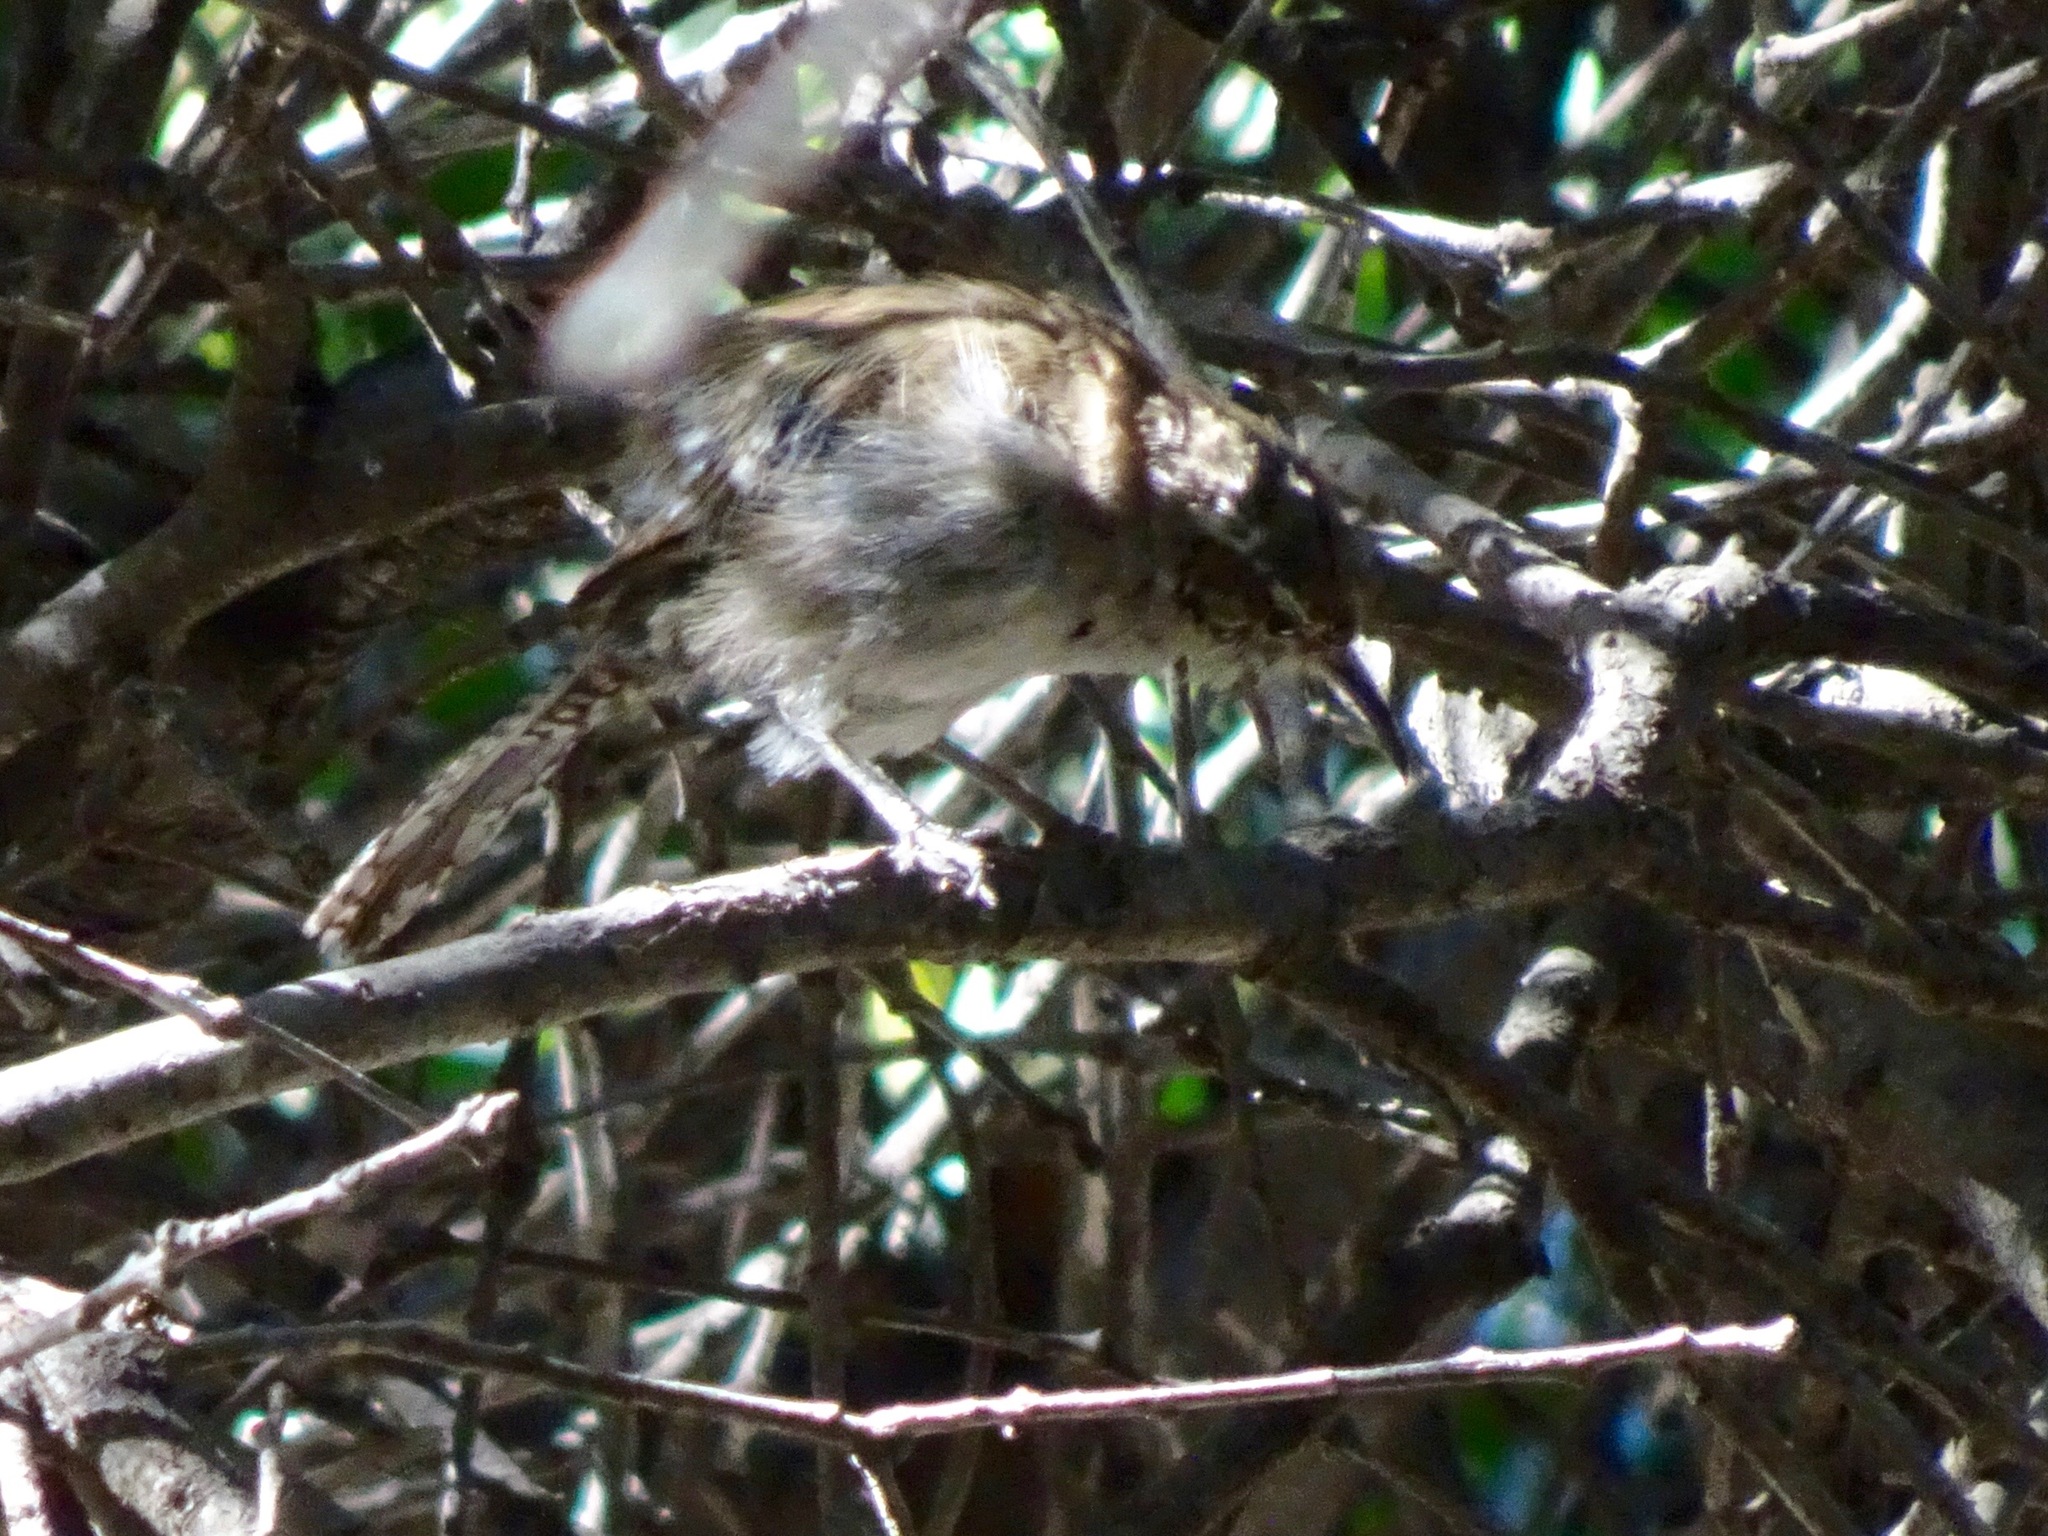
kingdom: Animalia
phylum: Chordata
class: Aves
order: Passeriformes
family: Troglodytidae
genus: Thryomanes
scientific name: Thryomanes bewickii
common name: Bewick's wren
